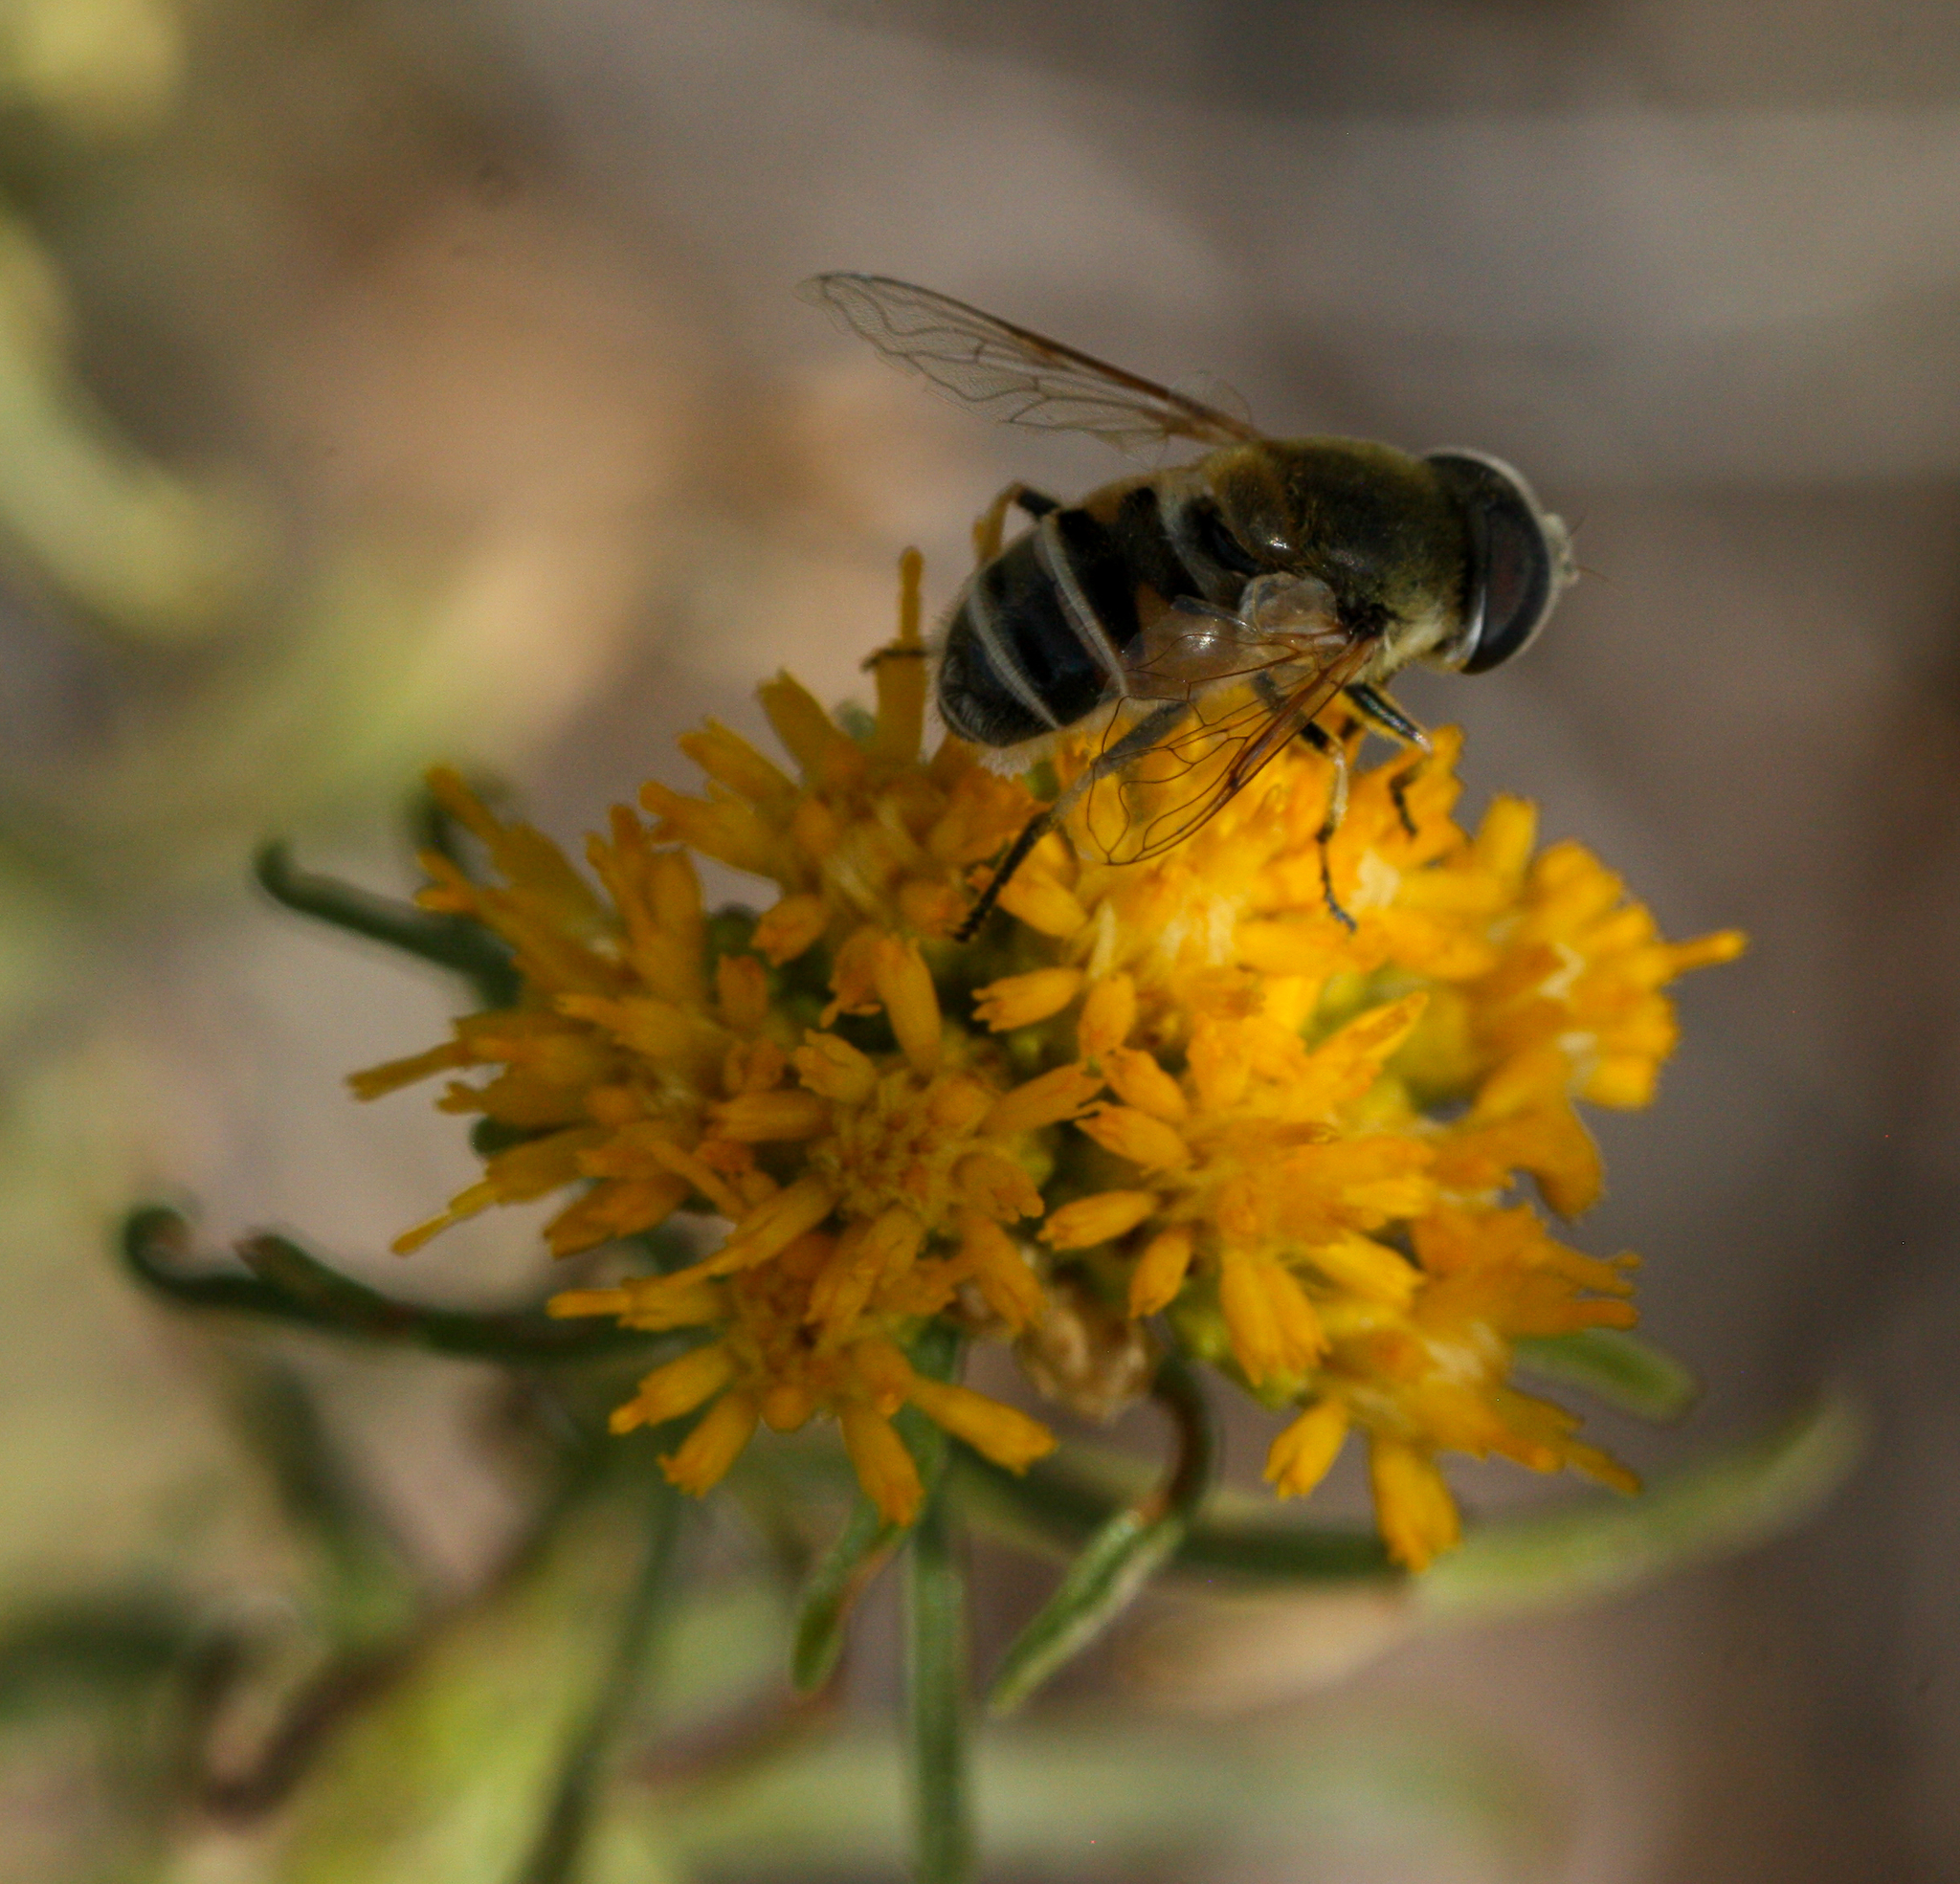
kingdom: Animalia
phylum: Arthropoda
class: Insecta
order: Diptera
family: Syrphidae
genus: Eristalis
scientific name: Eristalis stipator
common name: Yellow-shouldered drone fly
